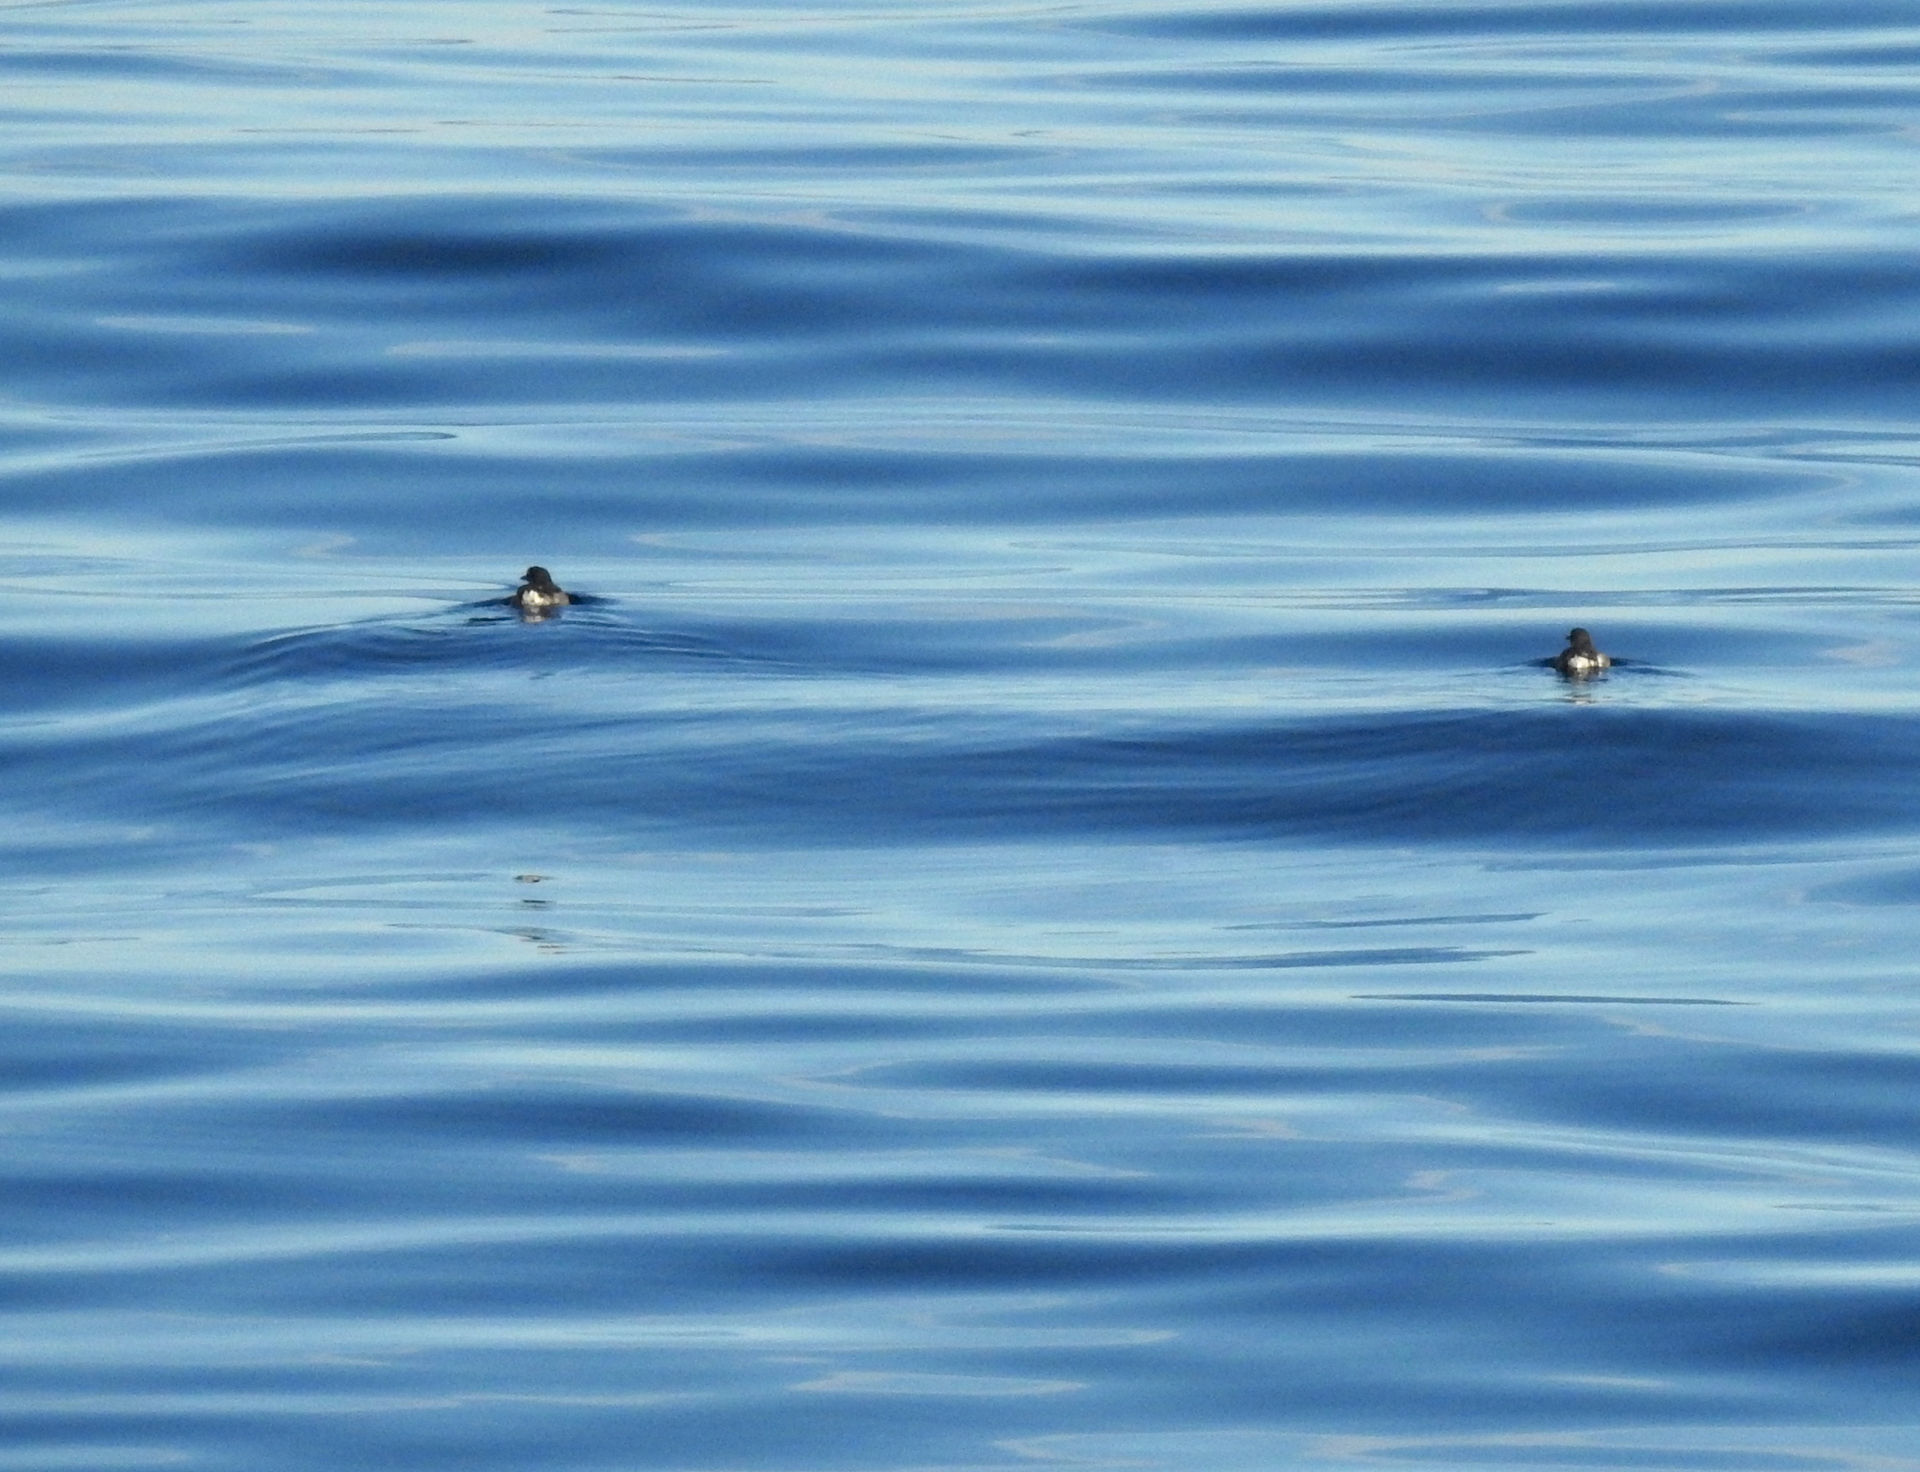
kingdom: Animalia
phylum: Chordata
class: Aves
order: Charadriiformes
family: Alcidae
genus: Ptychoramphus
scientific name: Ptychoramphus aleuticus
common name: Cassin's auklet
